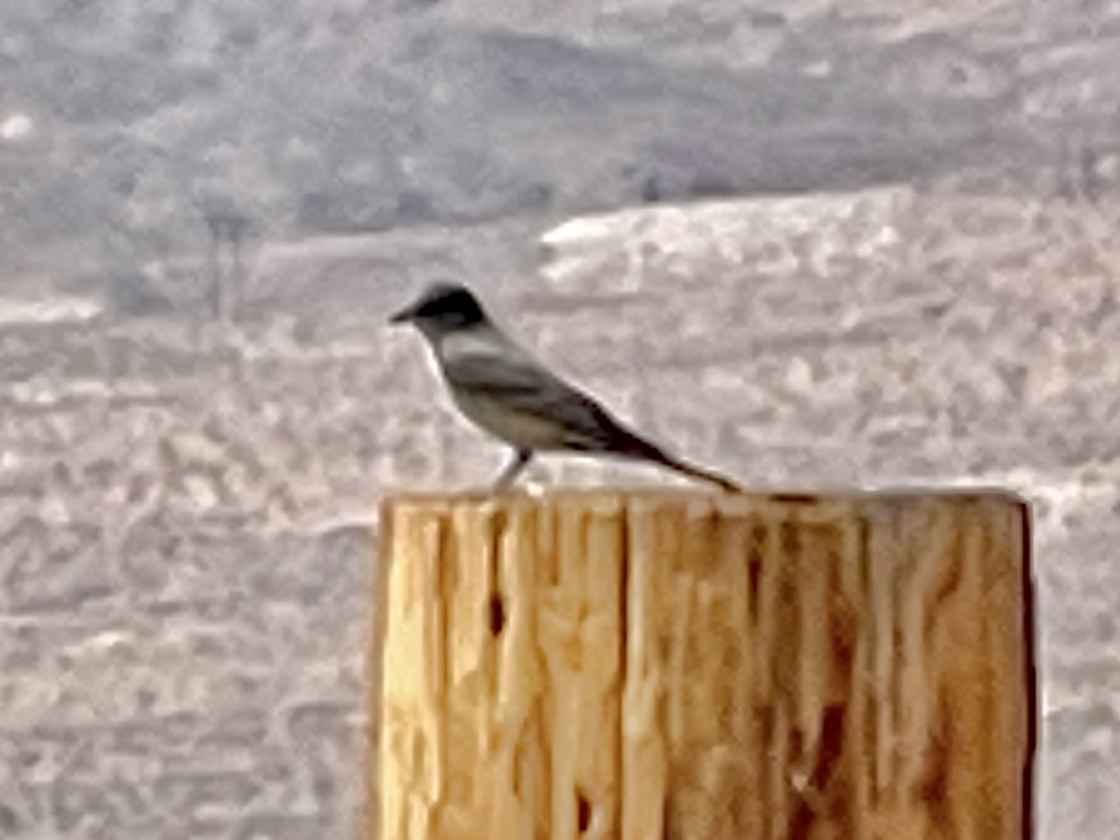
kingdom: Animalia
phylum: Chordata
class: Aves
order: Passeriformes
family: Tyrannidae
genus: Sayornis
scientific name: Sayornis saya
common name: Say's phoebe
